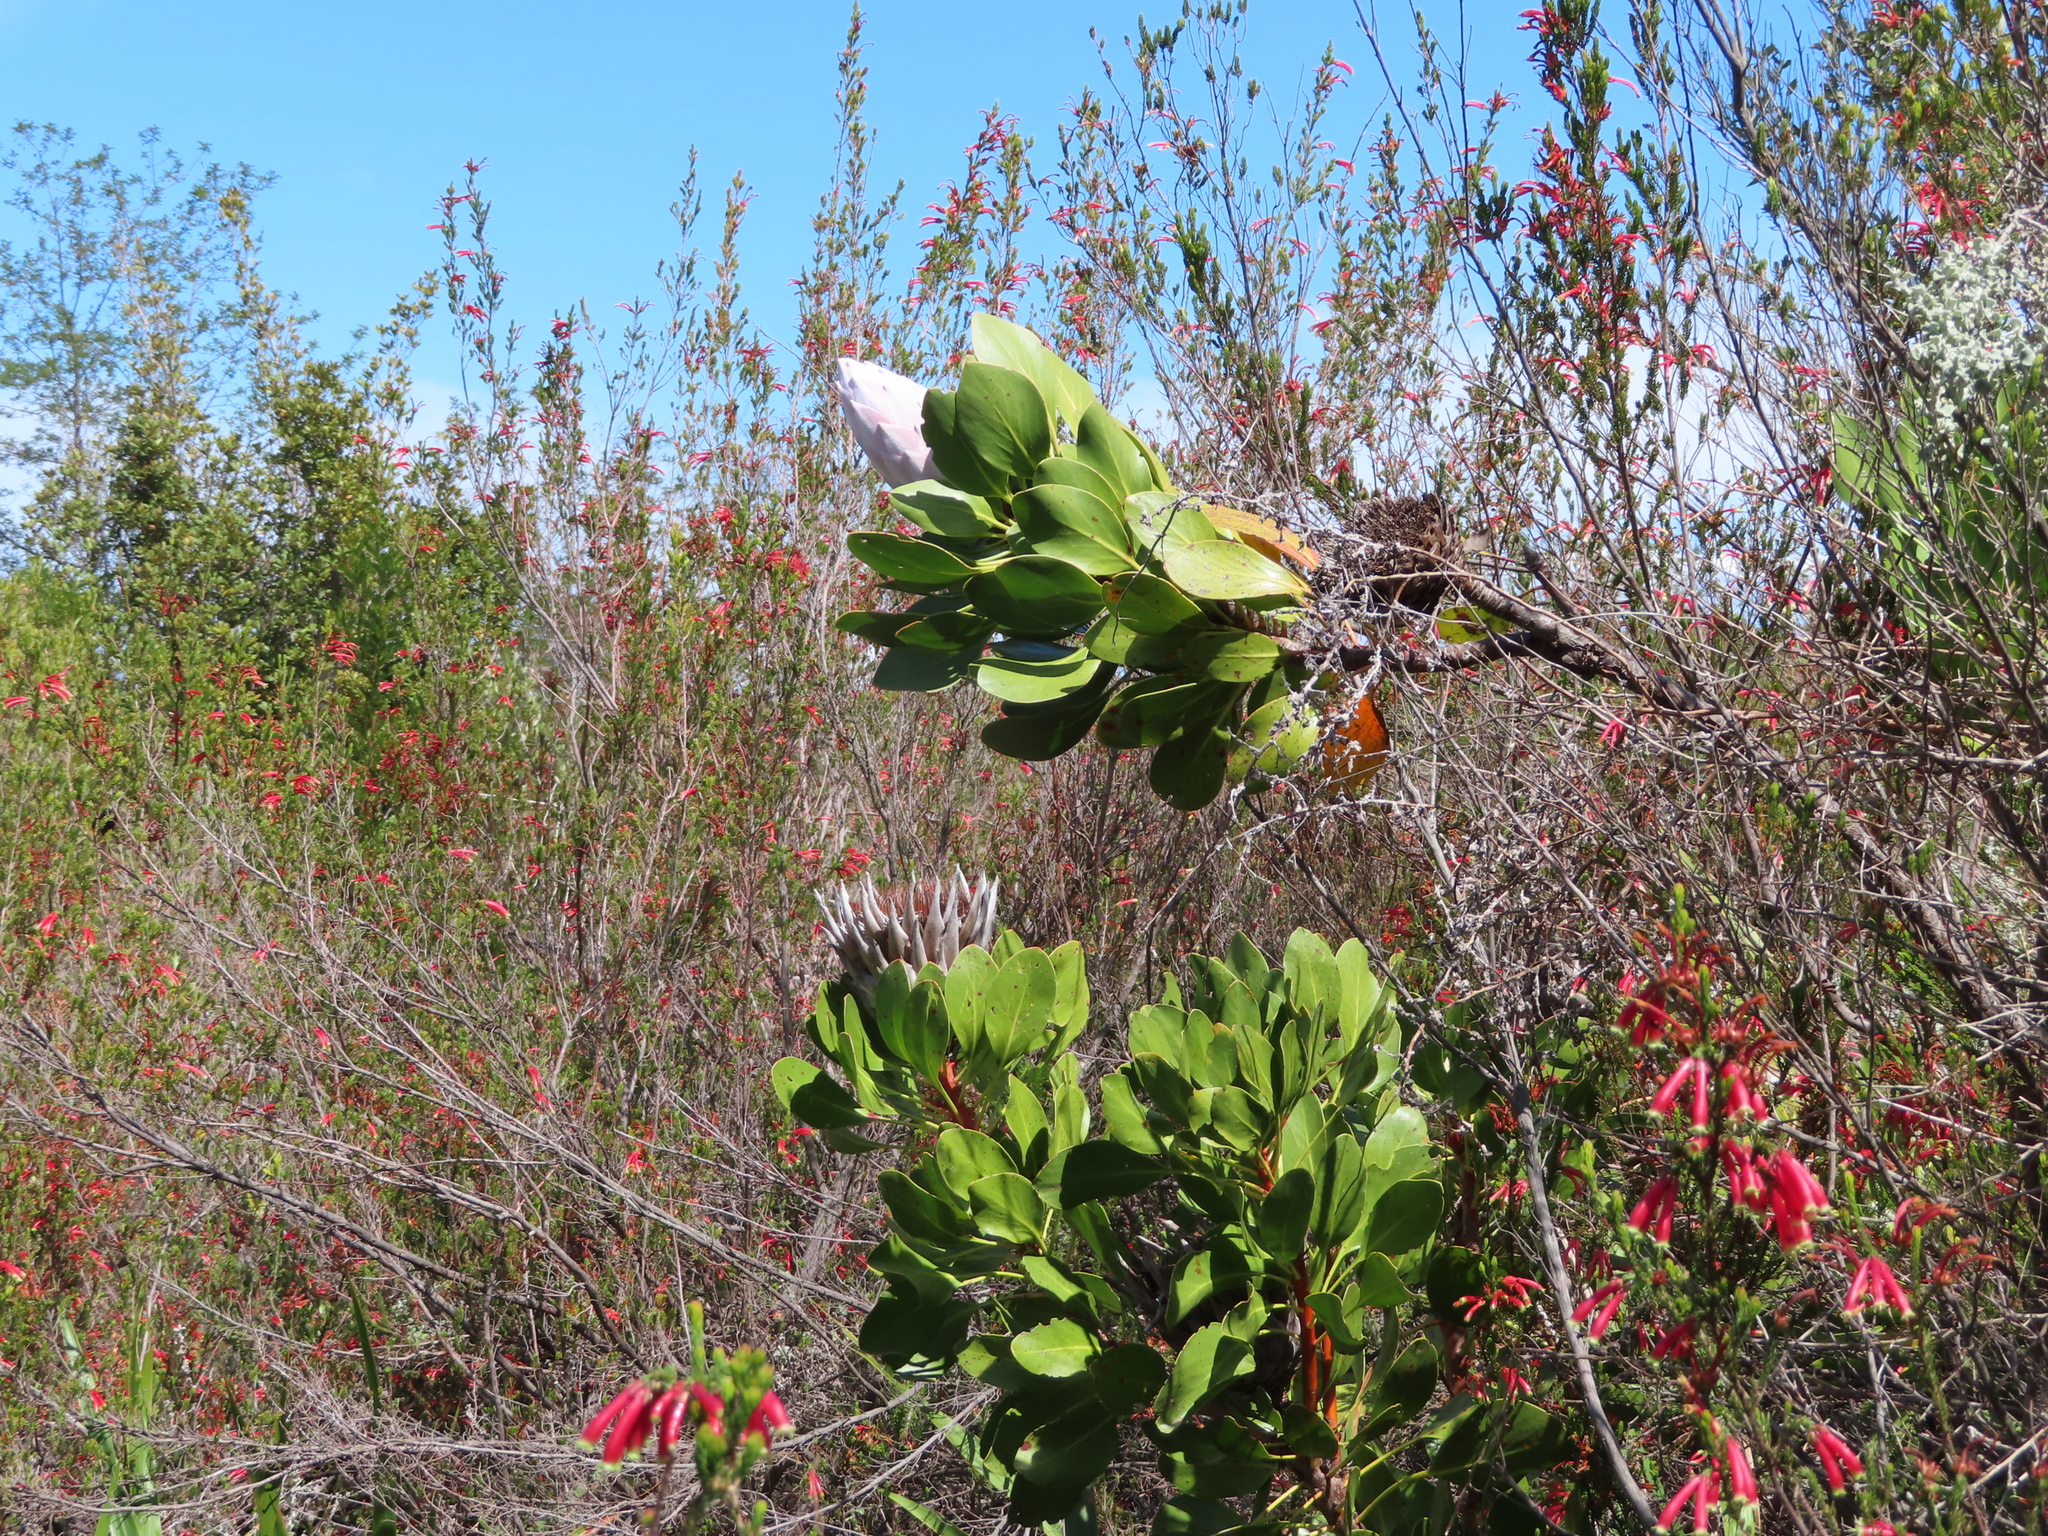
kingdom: Plantae
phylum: Tracheophyta
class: Magnoliopsida
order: Proteales
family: Proteaceae
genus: Protea
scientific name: Protea cynaroides
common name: King protea
